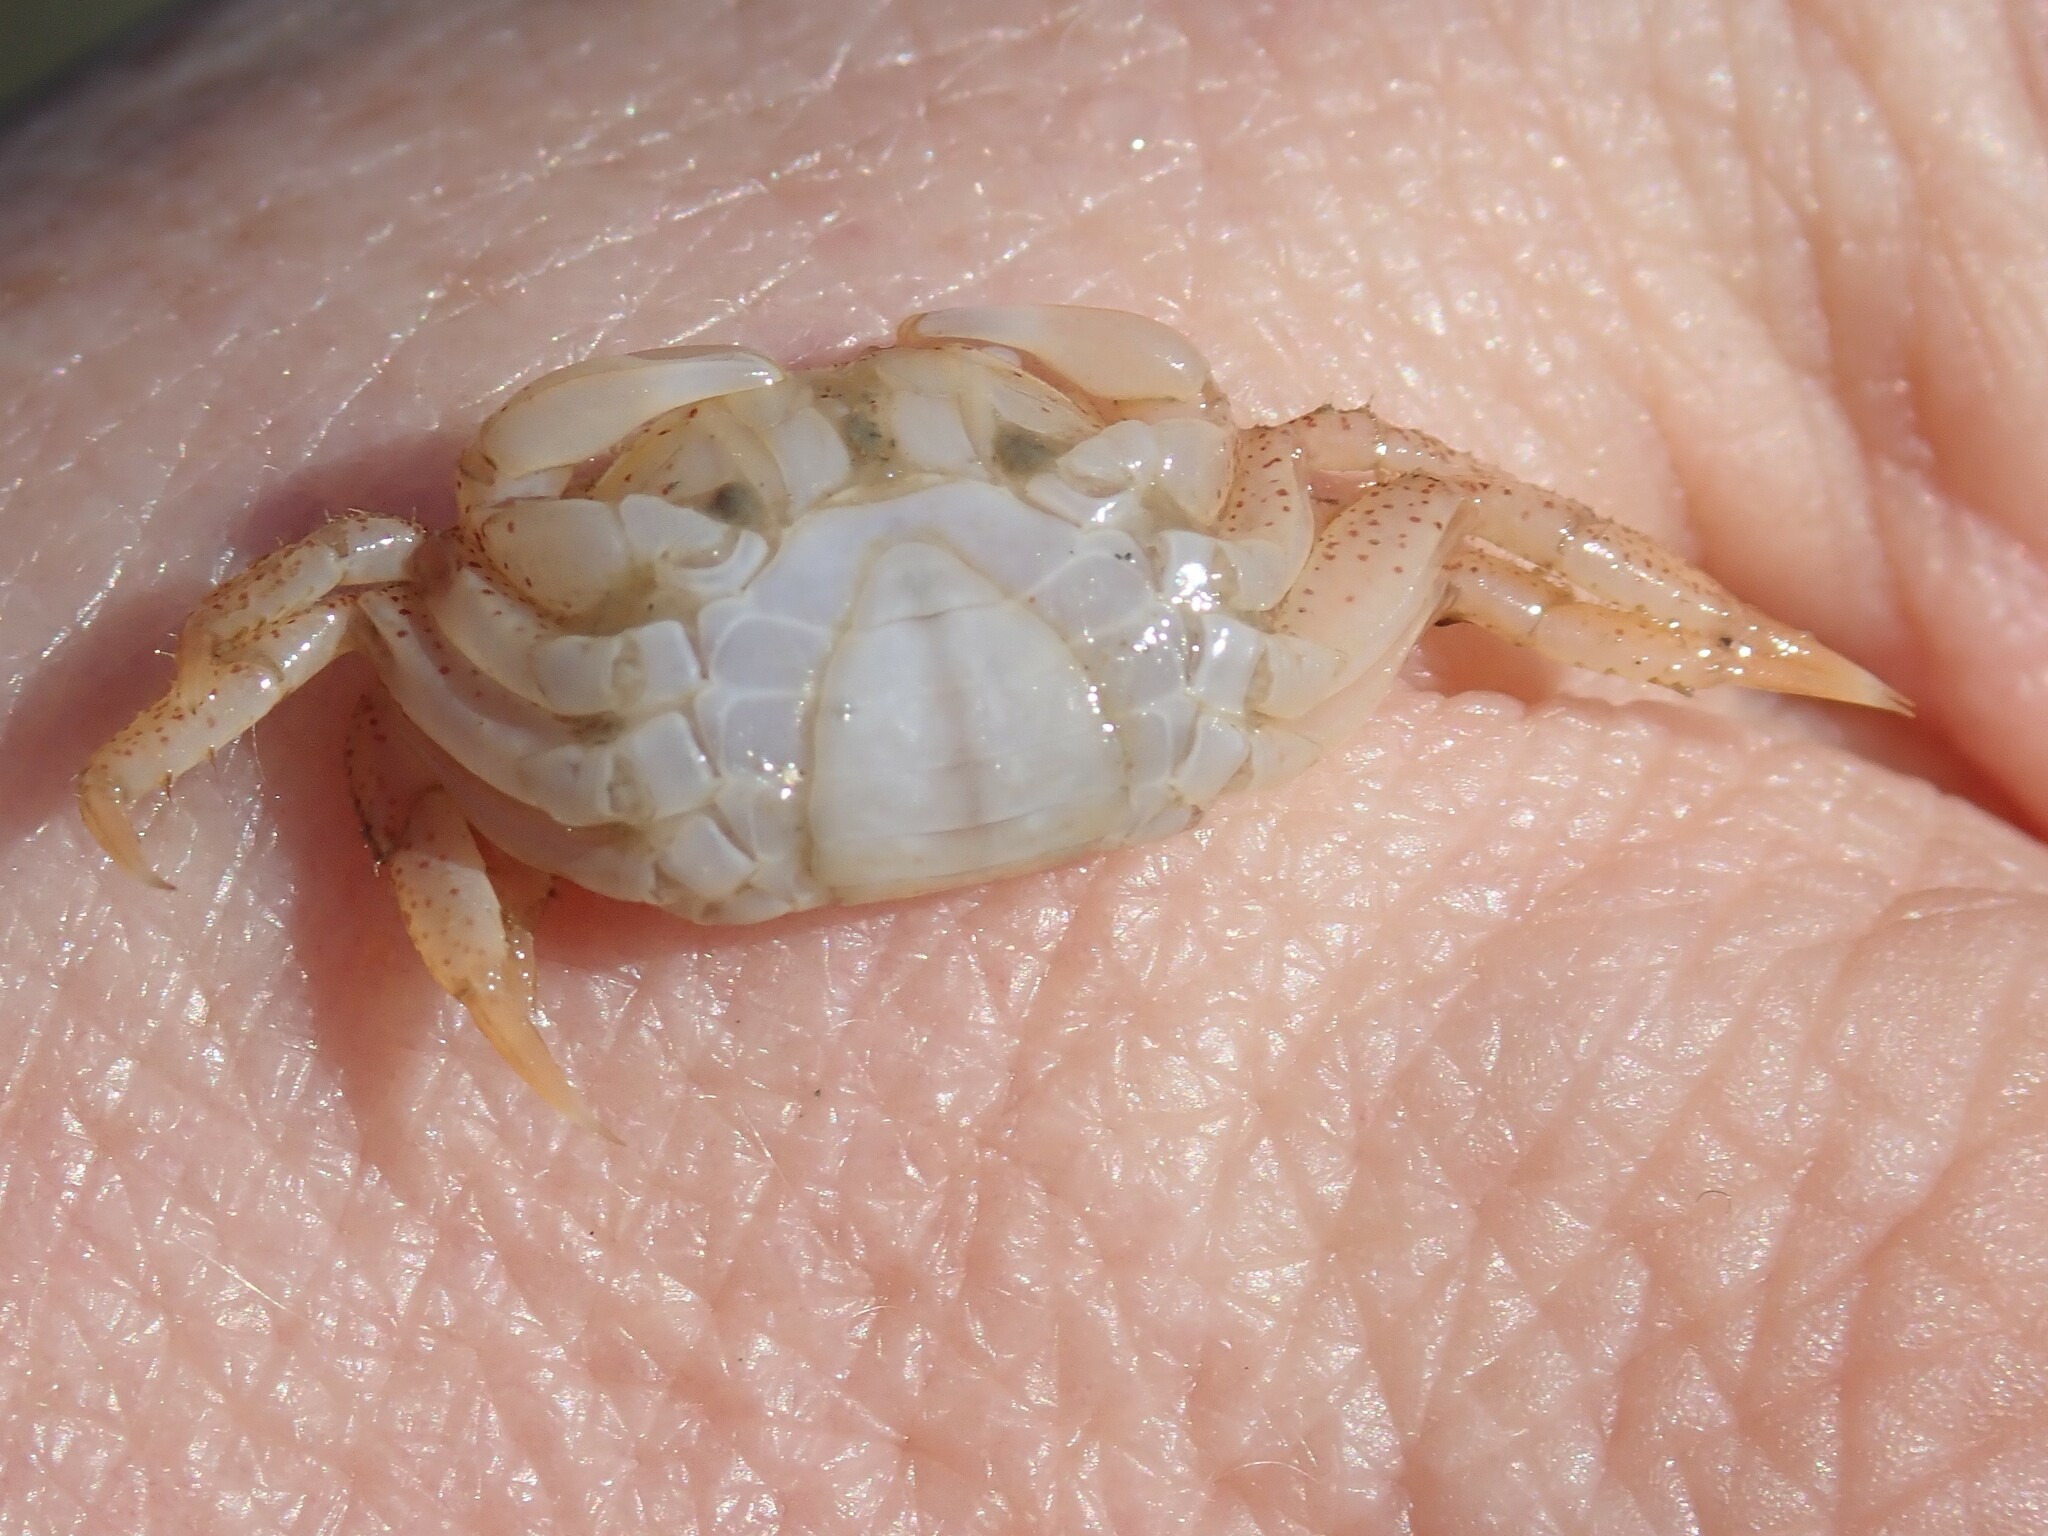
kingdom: Animalia
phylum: Arthropoda
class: Malacostraca
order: Decapoda
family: Varunidae
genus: Hemigrapsus
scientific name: Hemigrapsus oregonensis
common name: Yellow shore crab
